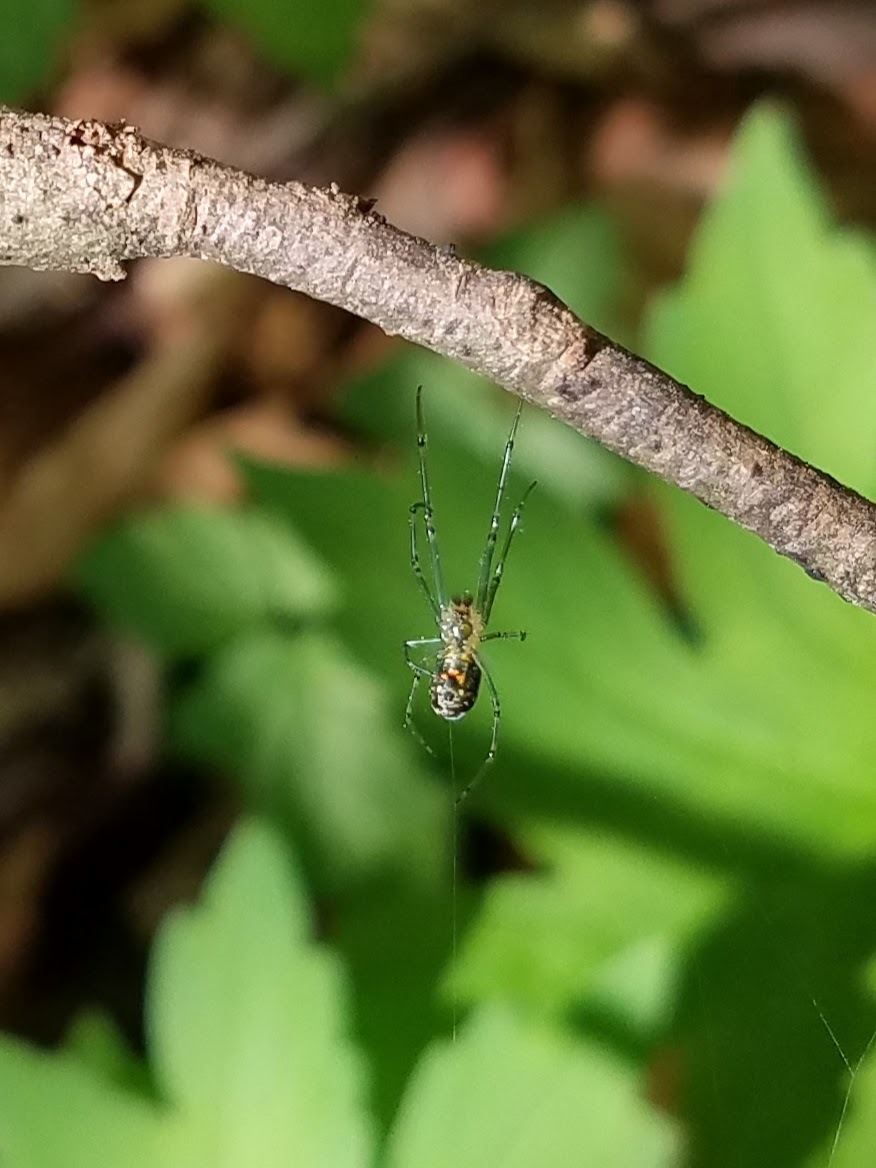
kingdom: Animalia
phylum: Arthropoda
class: Arachnida
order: Araneae
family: Tetragnathidae
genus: Leucauge
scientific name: Leucauge venusta
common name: Longjawed orb weavers
